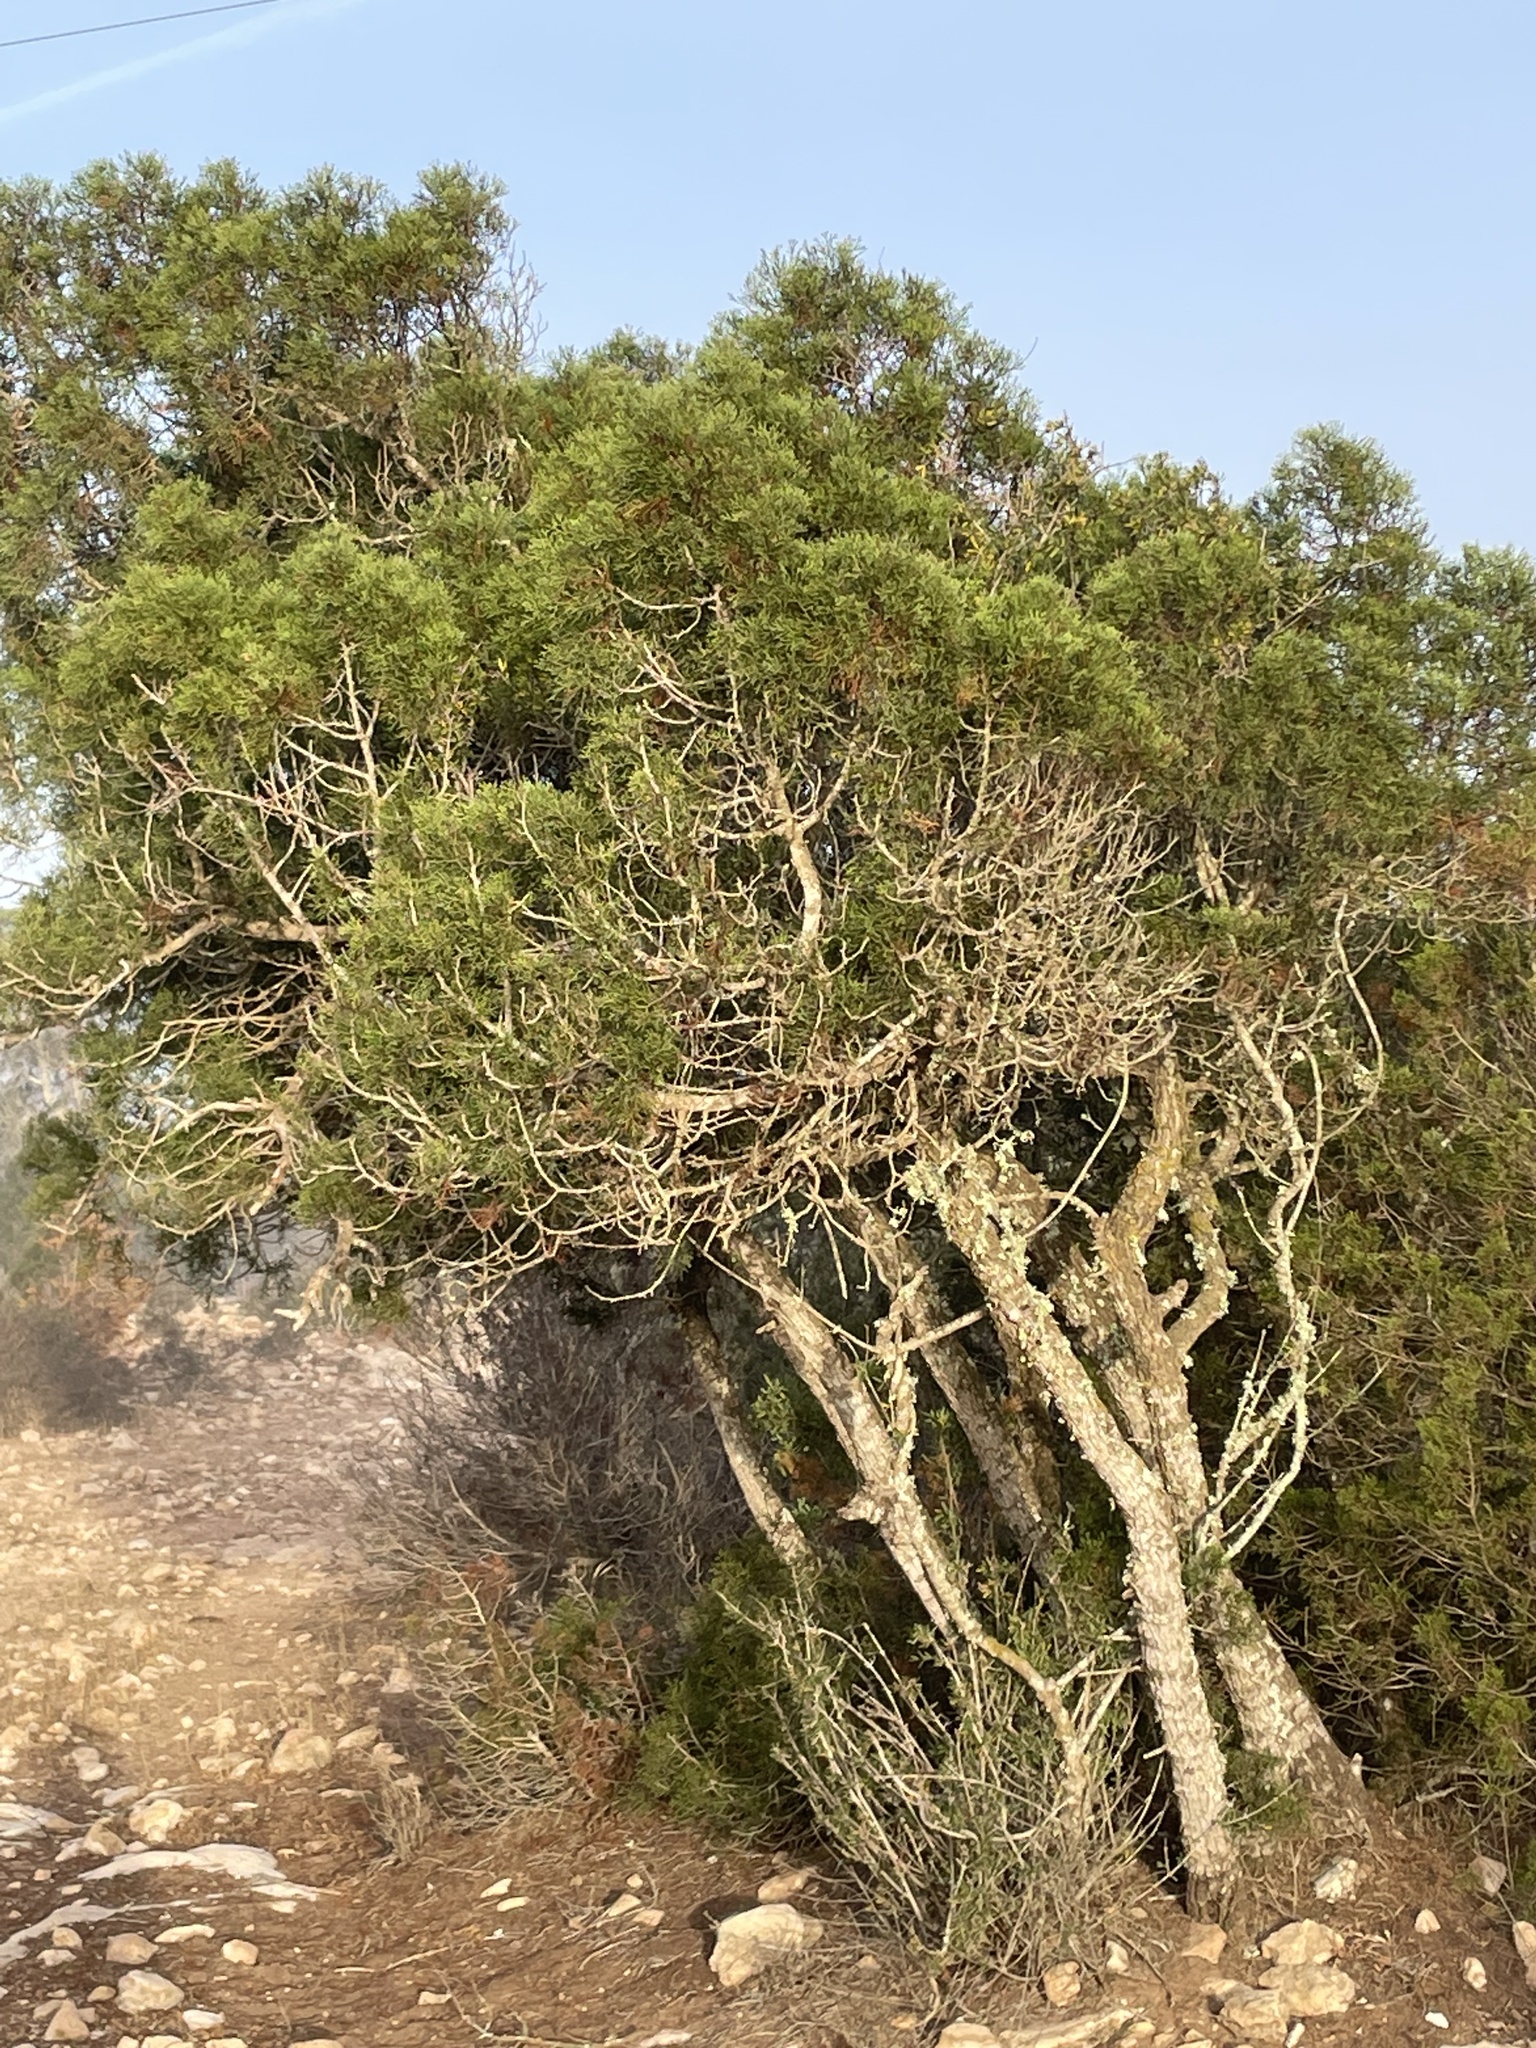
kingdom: Plantae
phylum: Tracheophyta
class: Pinopsida
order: Pinales
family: Cupressaceae
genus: Tetraclinis
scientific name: Tetraclinis articulata
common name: Sandarac
